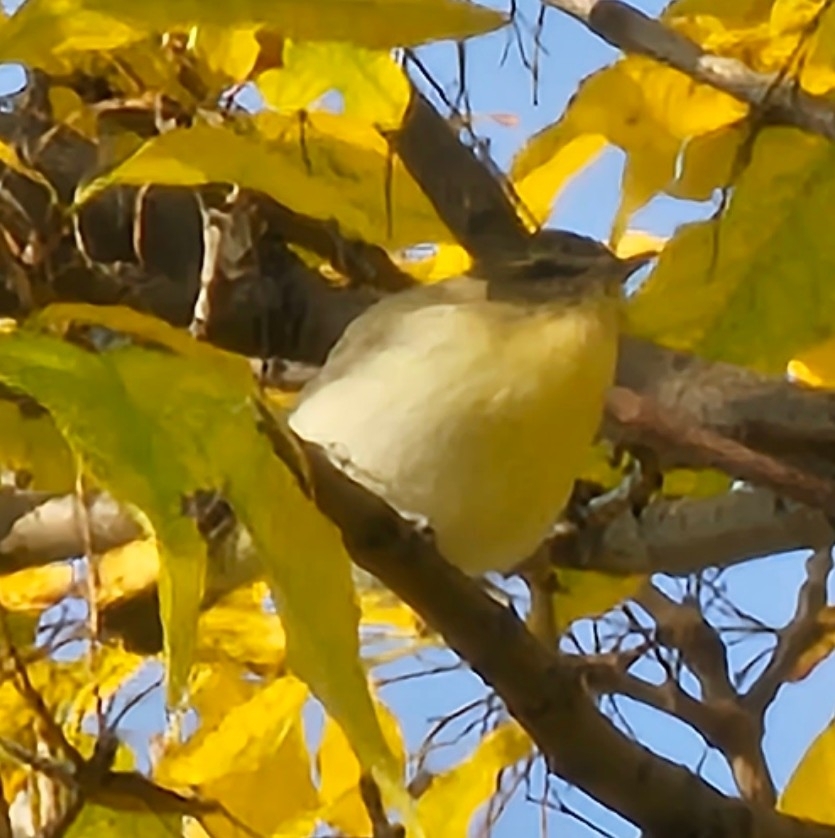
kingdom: Animalia
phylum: Chordata
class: Aves
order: Passeriformes
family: Vireonidae
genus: Vireo
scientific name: Vireo philadelphicus
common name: Philadelphia vireo
